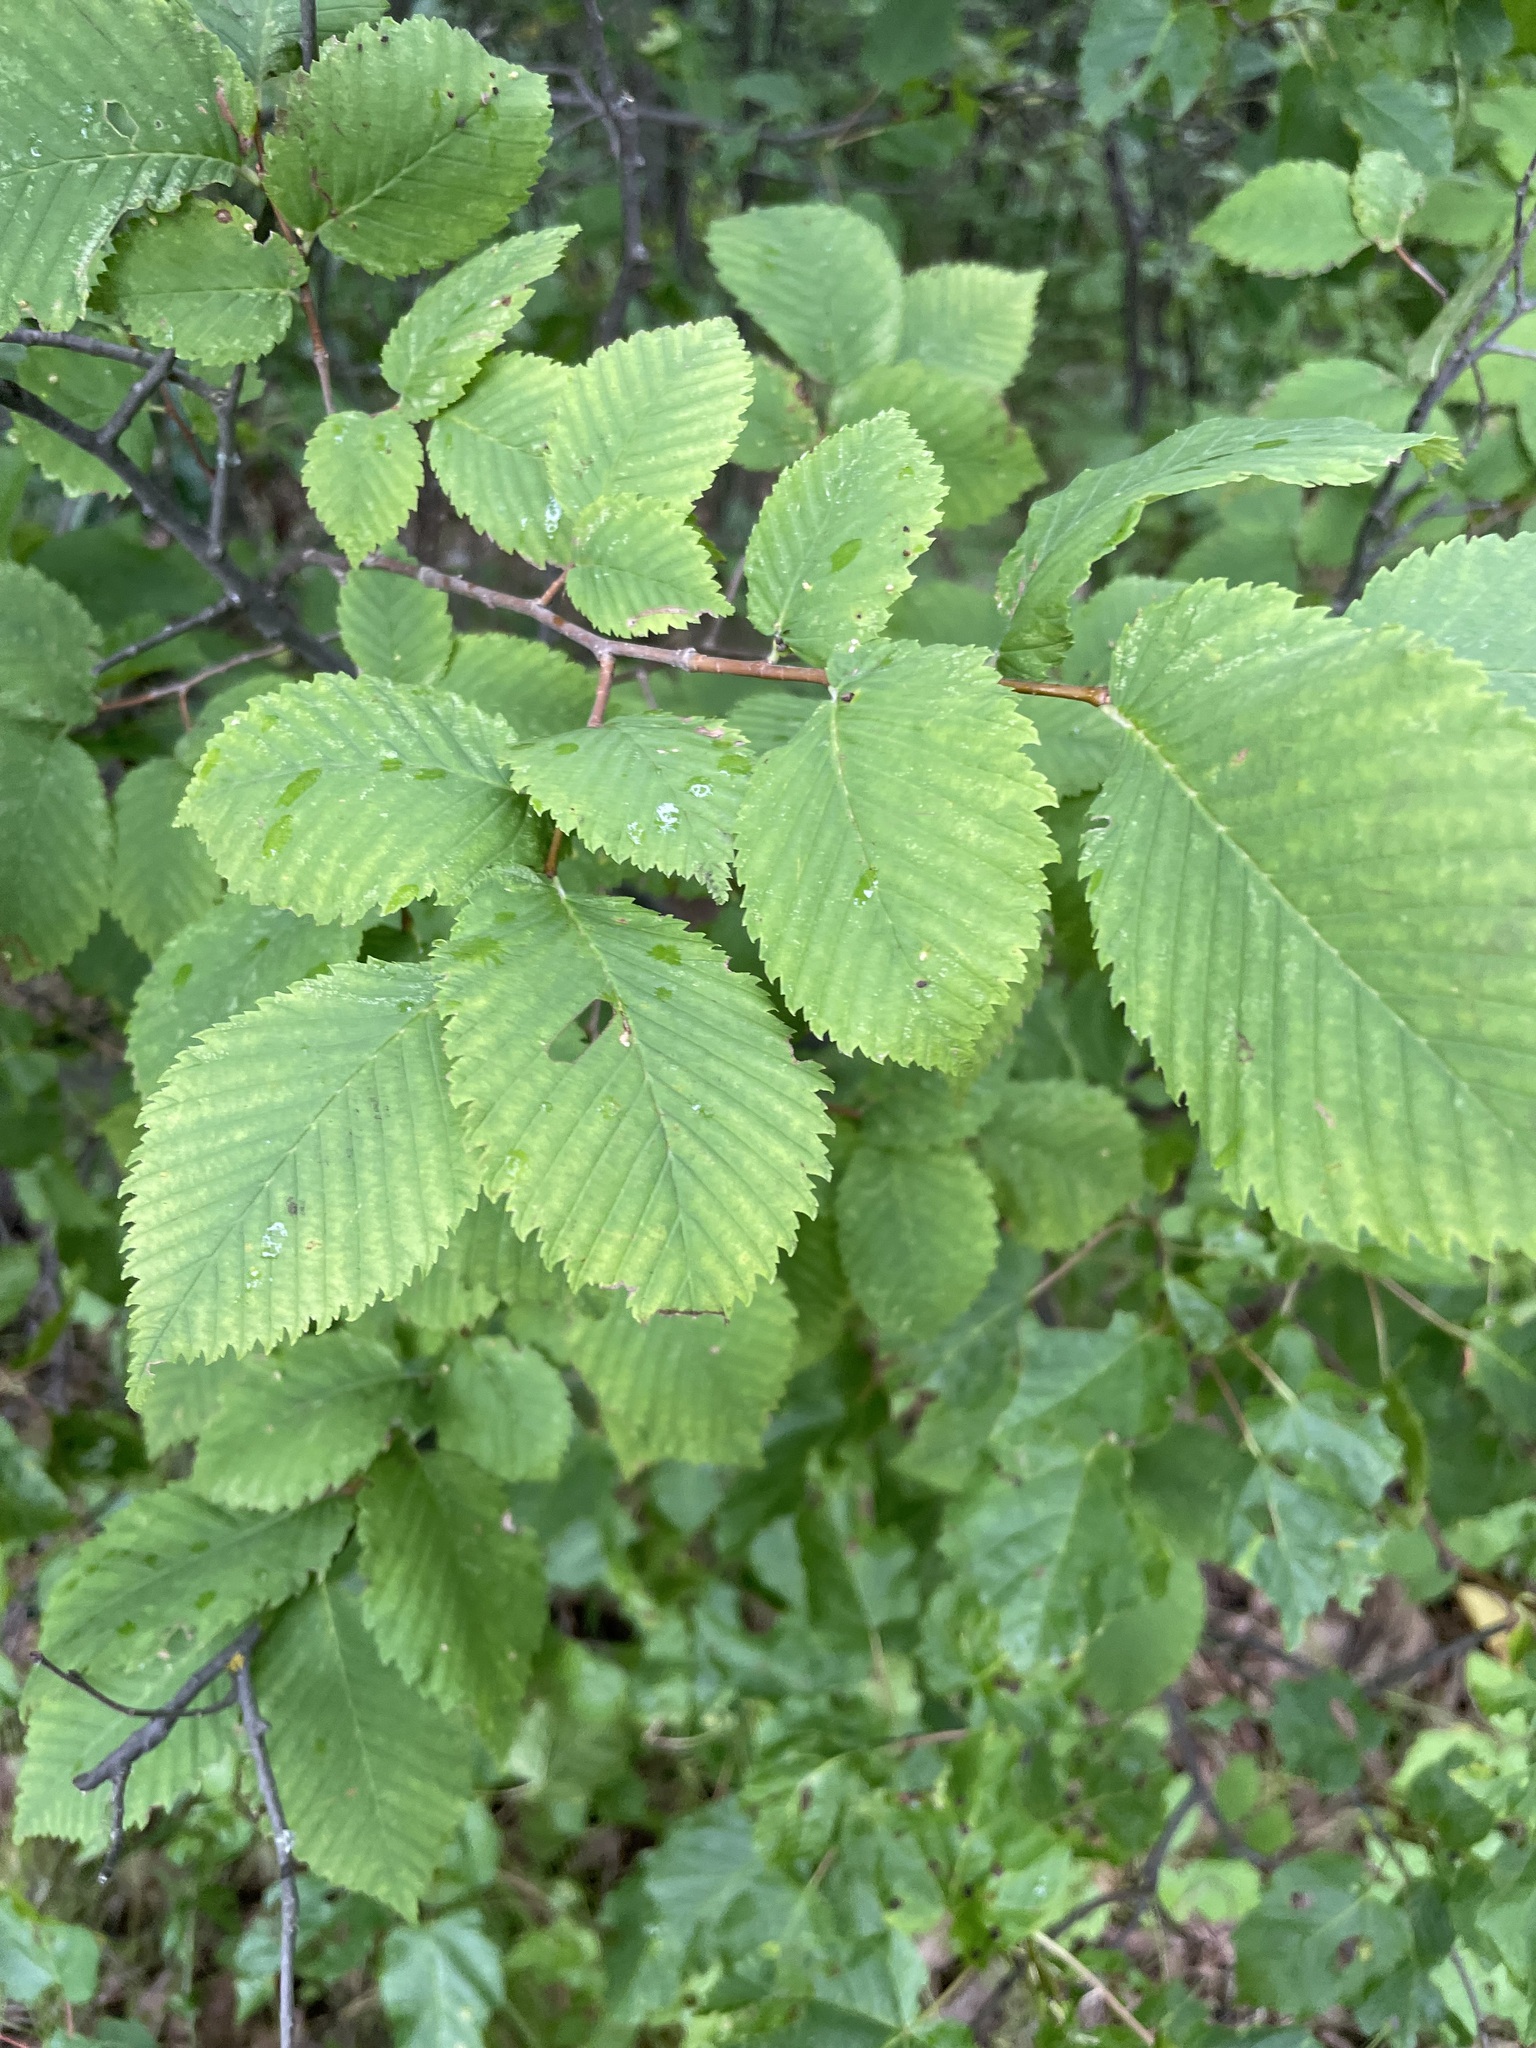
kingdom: Plantae
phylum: Tracheophyta
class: Magnoliopsida
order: Rosales
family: Ulmaceae
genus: Ulmus
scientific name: Ulmus laevis
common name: European white-elm
